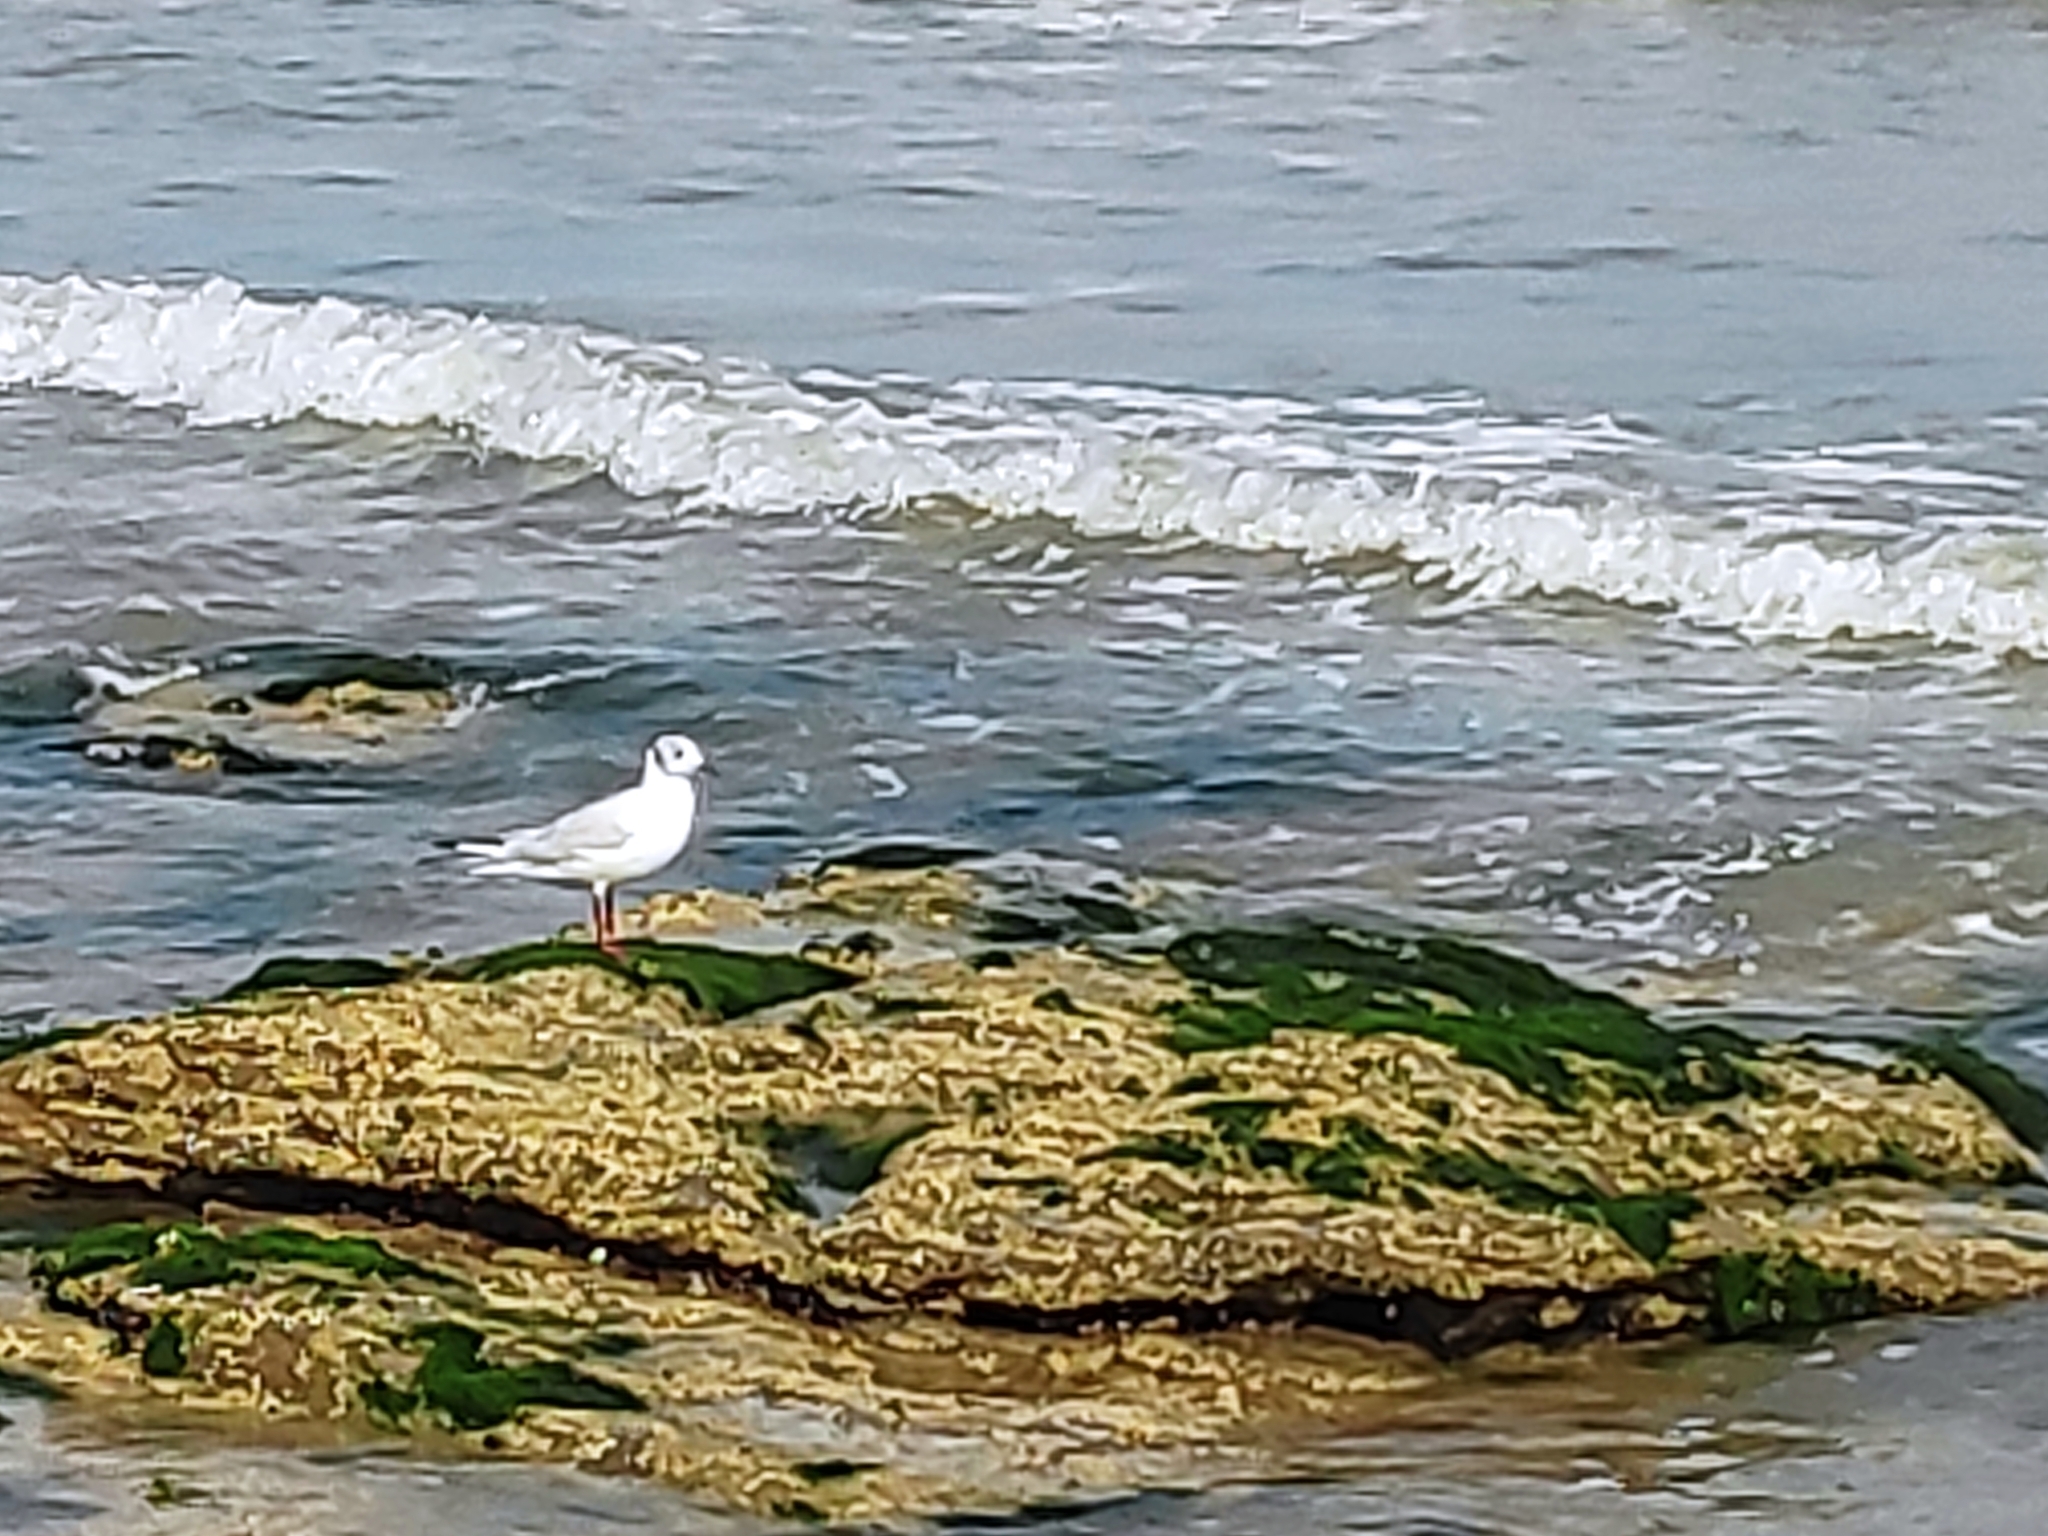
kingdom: Animalia
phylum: Chordata
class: Aves
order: Charadriiformes
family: Laridae
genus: Chroicocephalus
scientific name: Chroicocephalus ridibundus
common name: Black-headed gull
